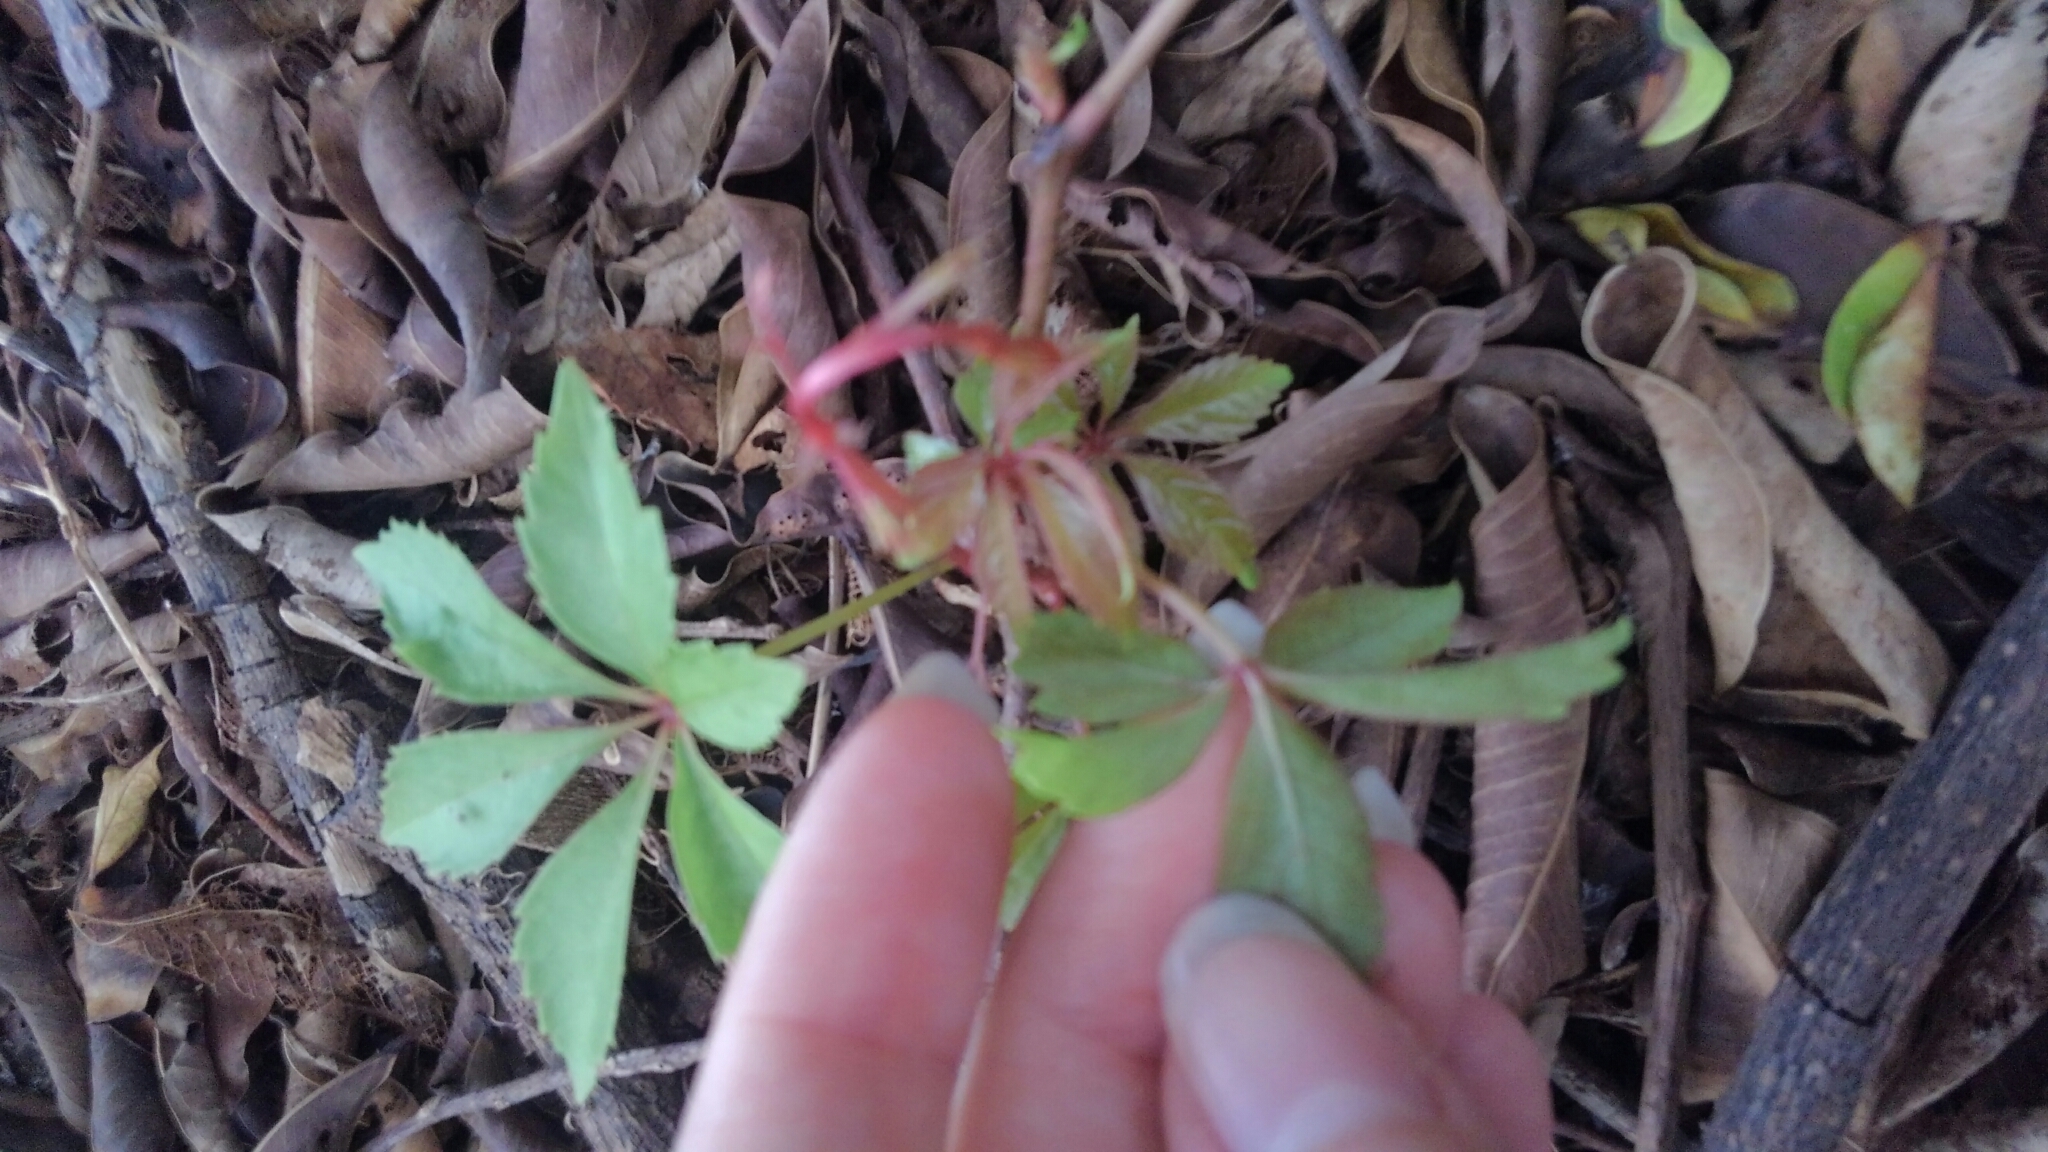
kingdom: Plantae
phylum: Tracheophyta
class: Magnoliopsida
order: Vitales
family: Vitaceae
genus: Parthenocissus
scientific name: Parthenocissus quinquefolia
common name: Virginia-creeper
